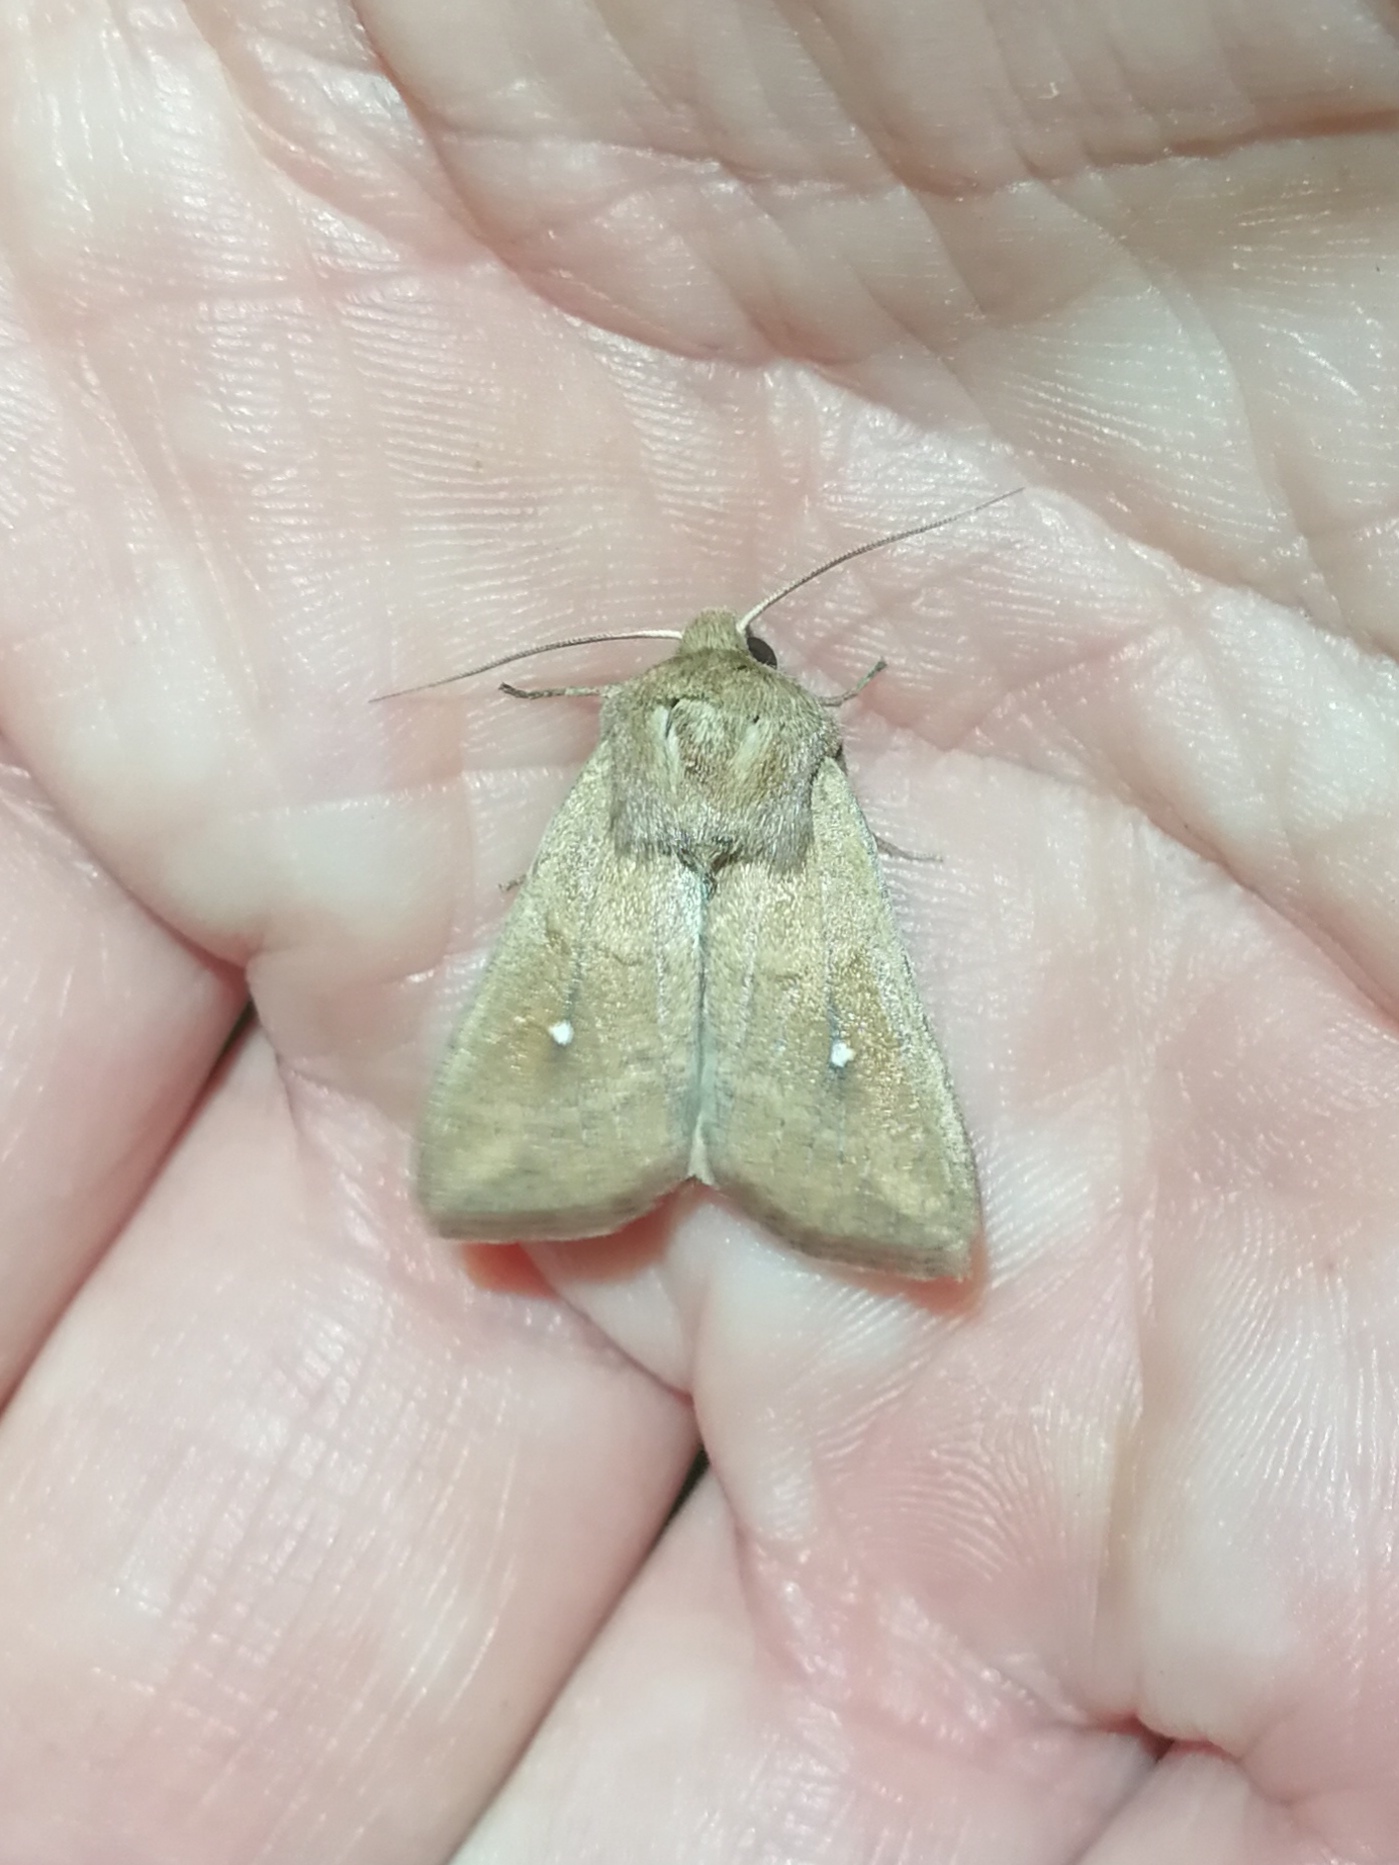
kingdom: Animalia
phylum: Arthropoda
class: Insecta
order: Lepidoptera
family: Noctuidae
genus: Mythimna
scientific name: Mythimna albipuncta
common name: White-point
